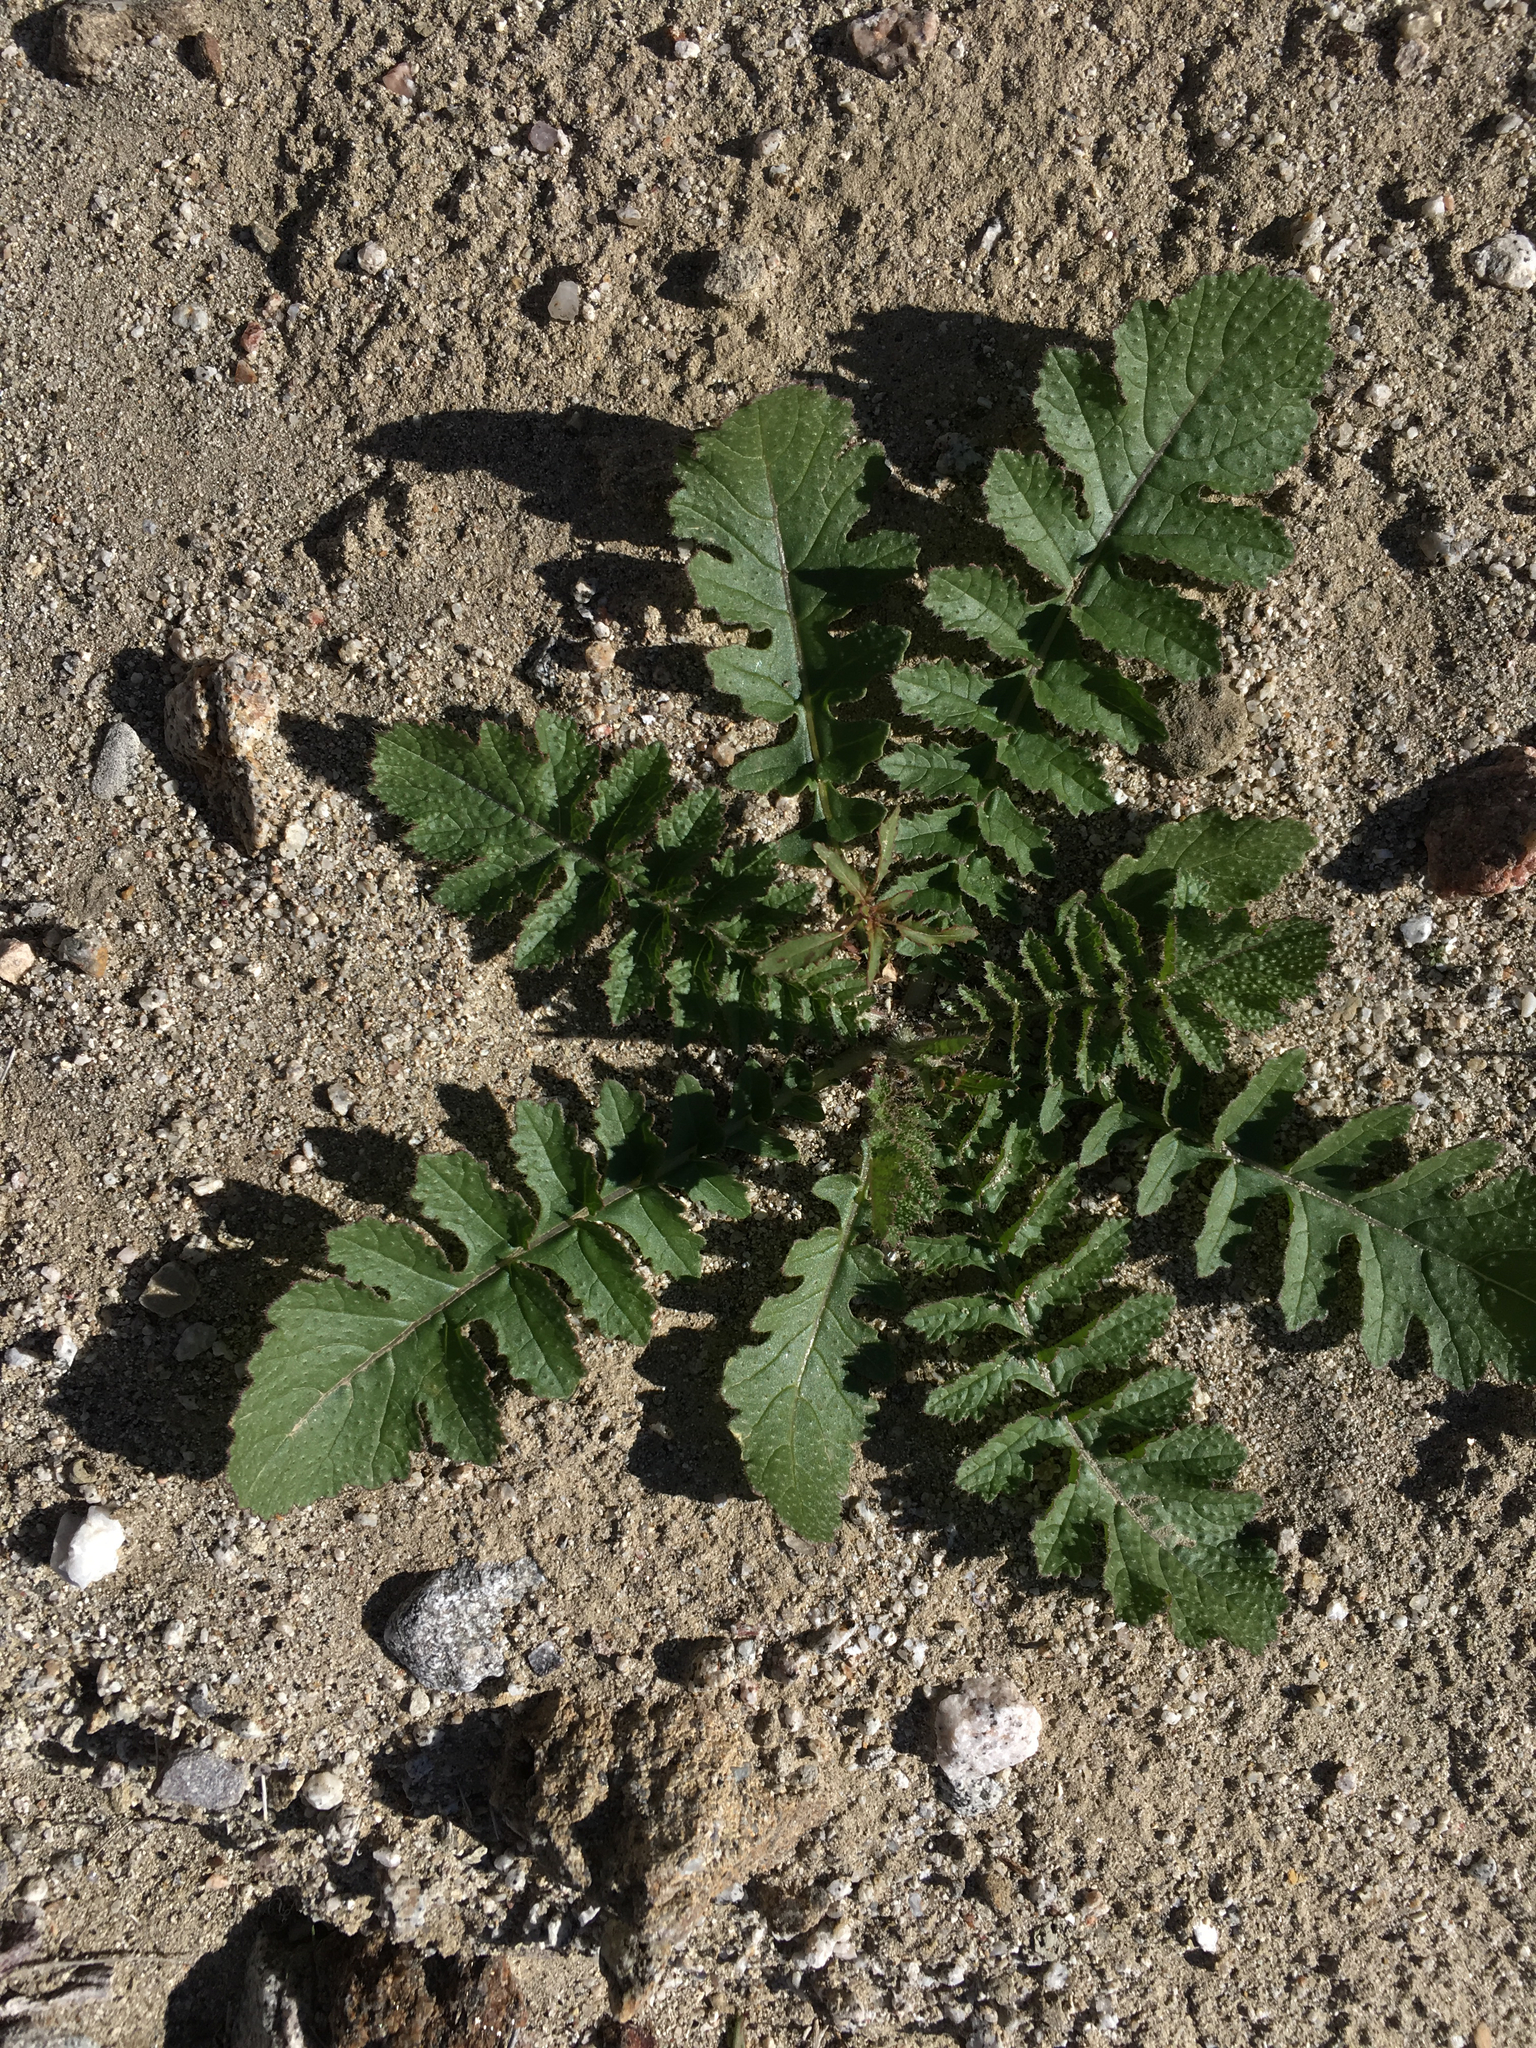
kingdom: Plantae
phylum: Tracheophyta
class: Magnoliopsida
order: Brassicales
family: Brassicaceae
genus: Brassica
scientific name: Brassica tournefortii
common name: Pale cabbage
